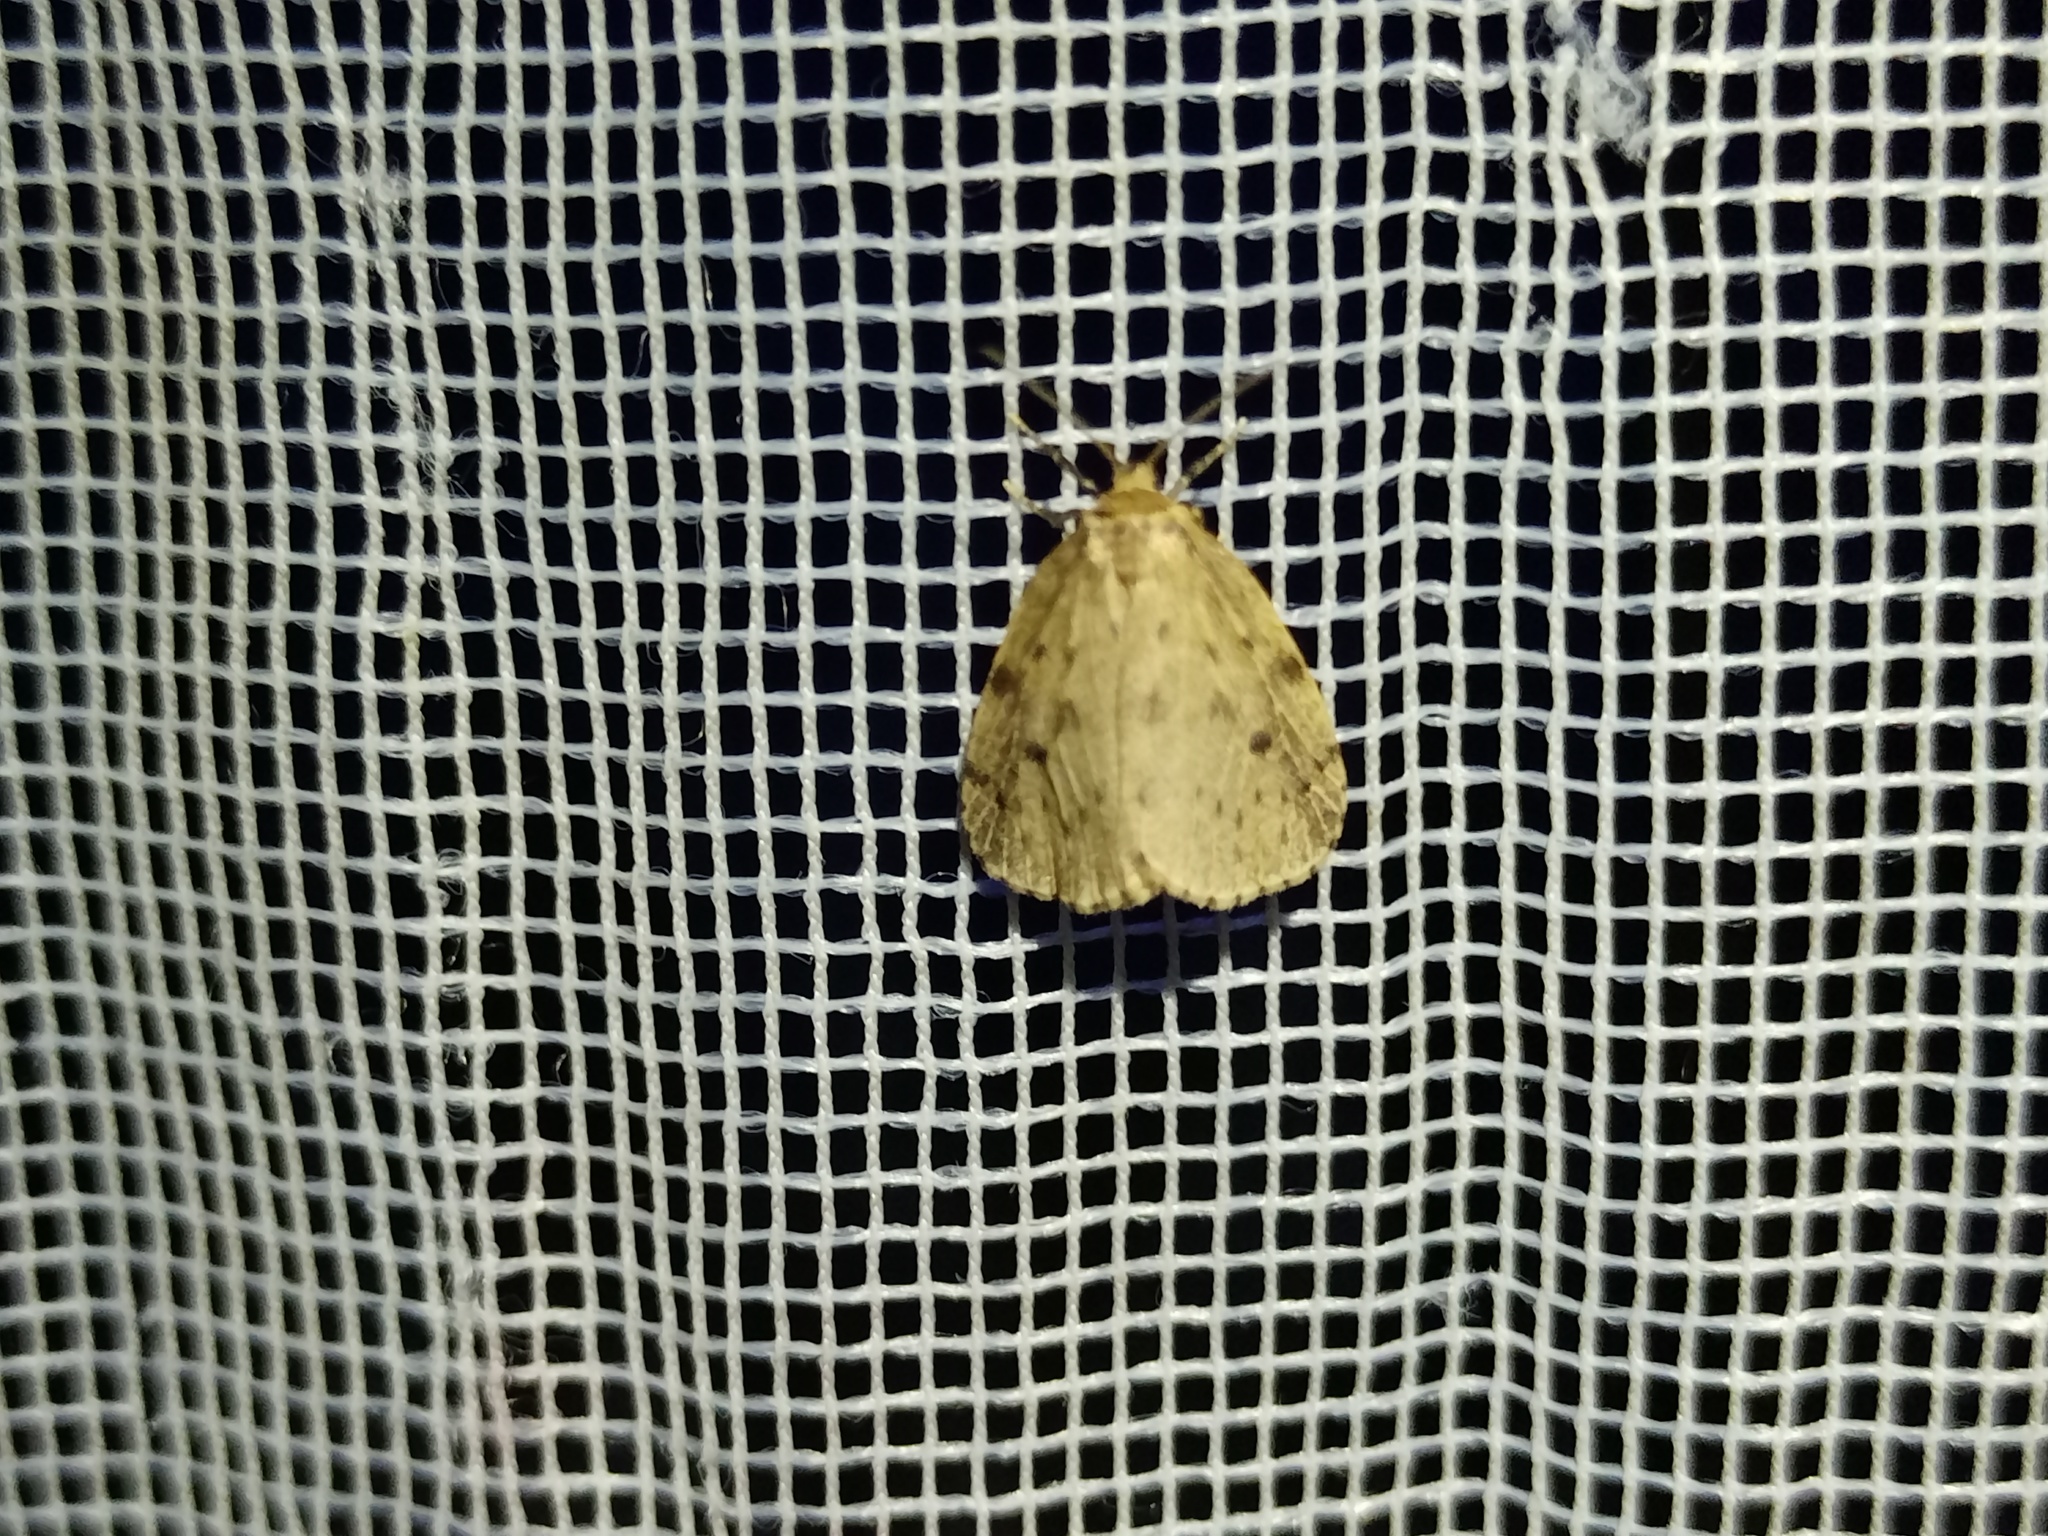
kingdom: Animalia
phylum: Arthropoda
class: Insecta
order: Lepidoptera
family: Erebidae
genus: Thumatha
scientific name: Thumatha senex
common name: Round-winged muslin
